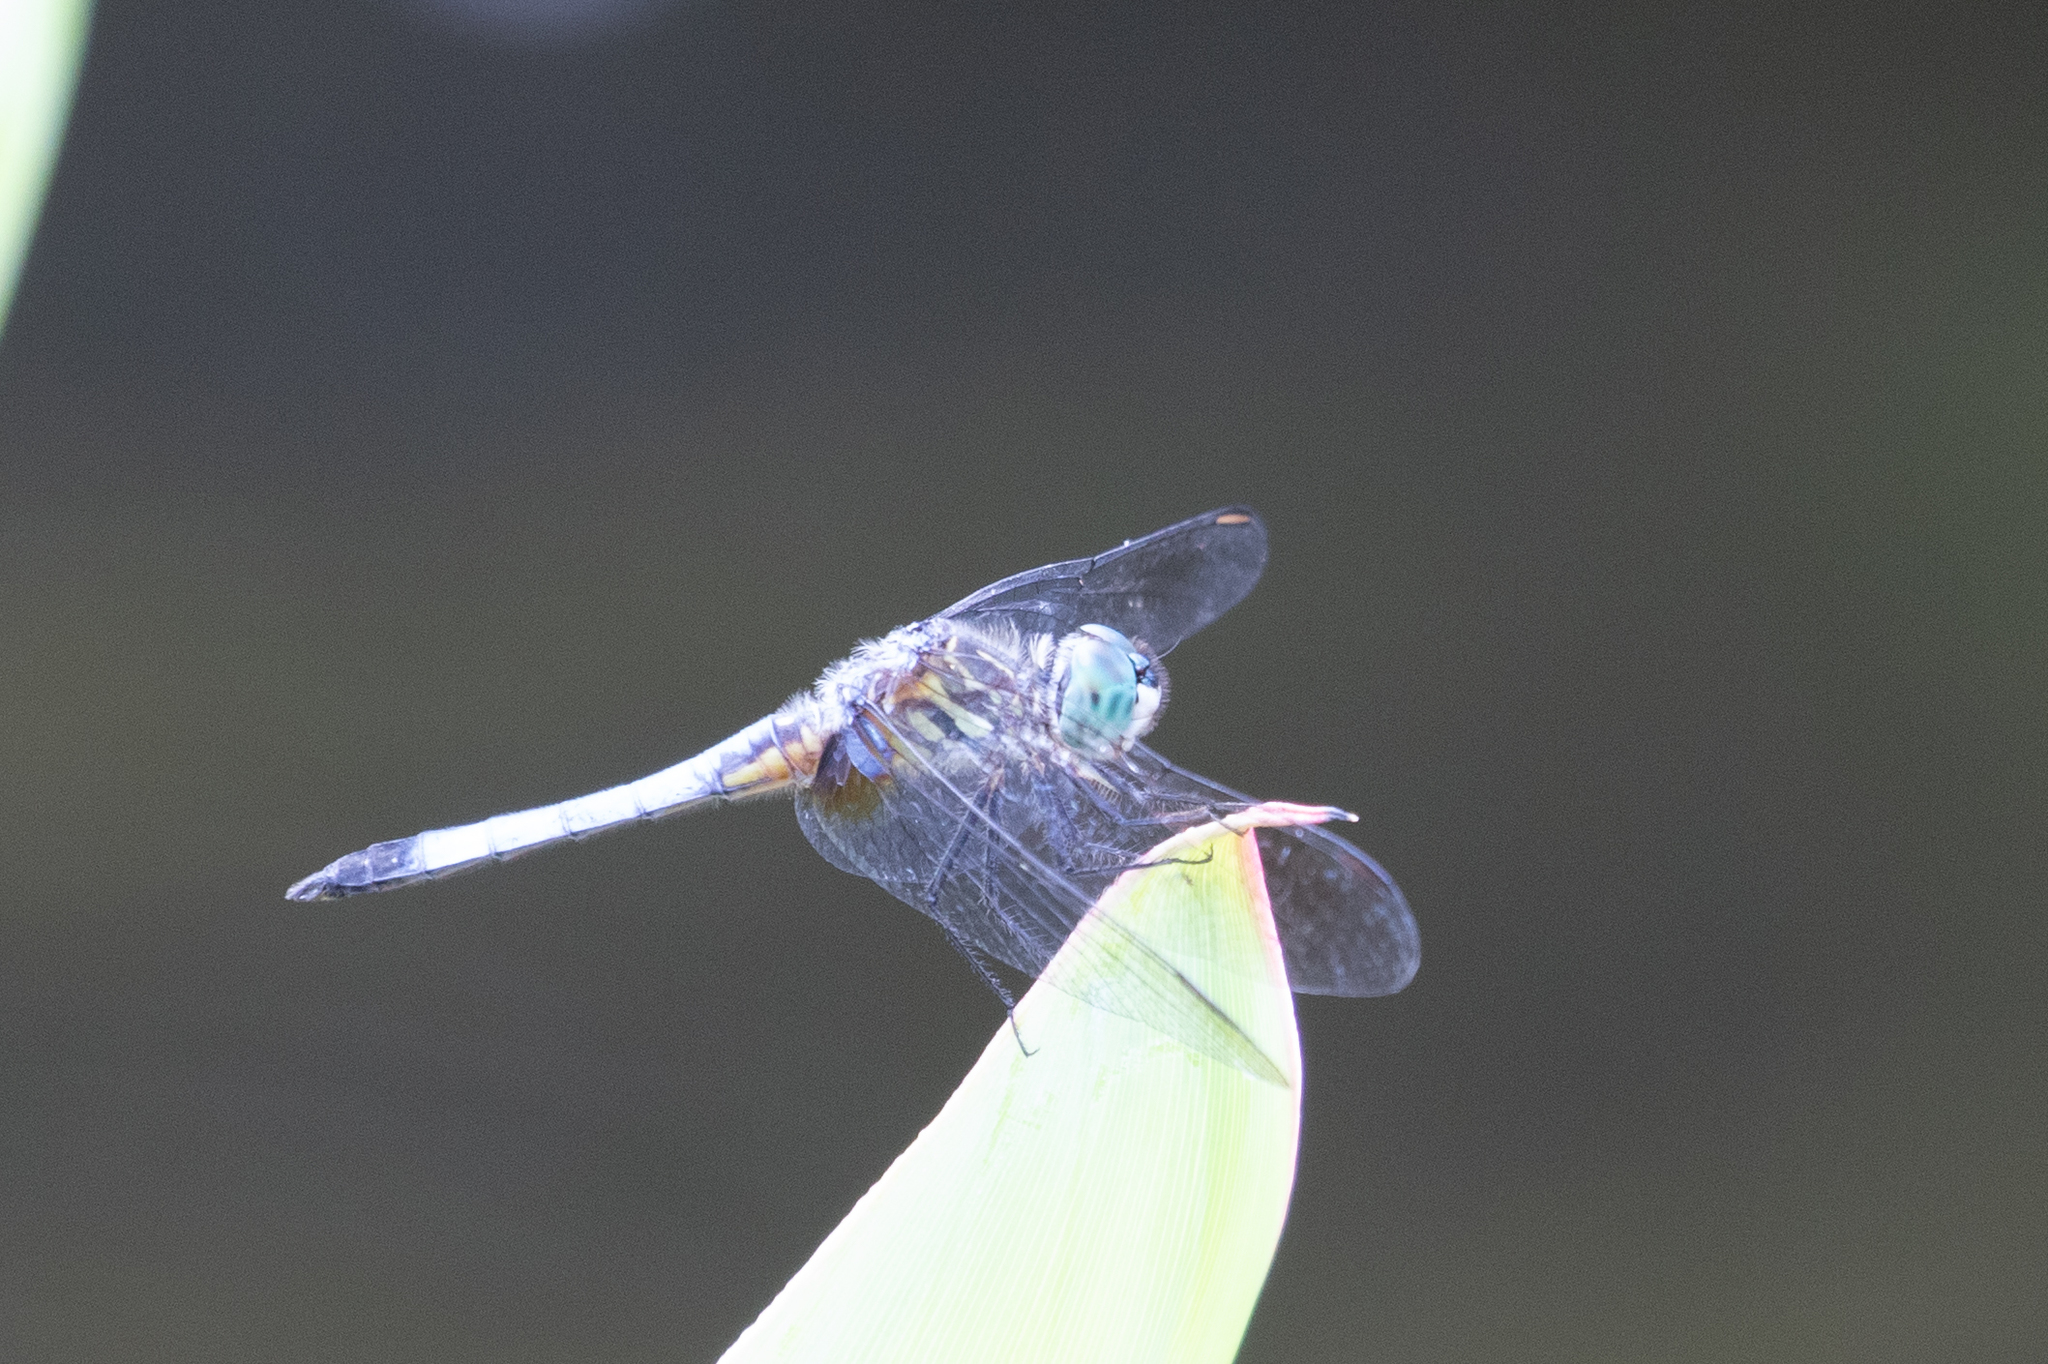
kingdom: Animalia
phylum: Arthropoda
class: Insecta
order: Odonata
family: Libellulidae
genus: Pachydiplax
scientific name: Pachydiplax longipennis
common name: Blue dasher
